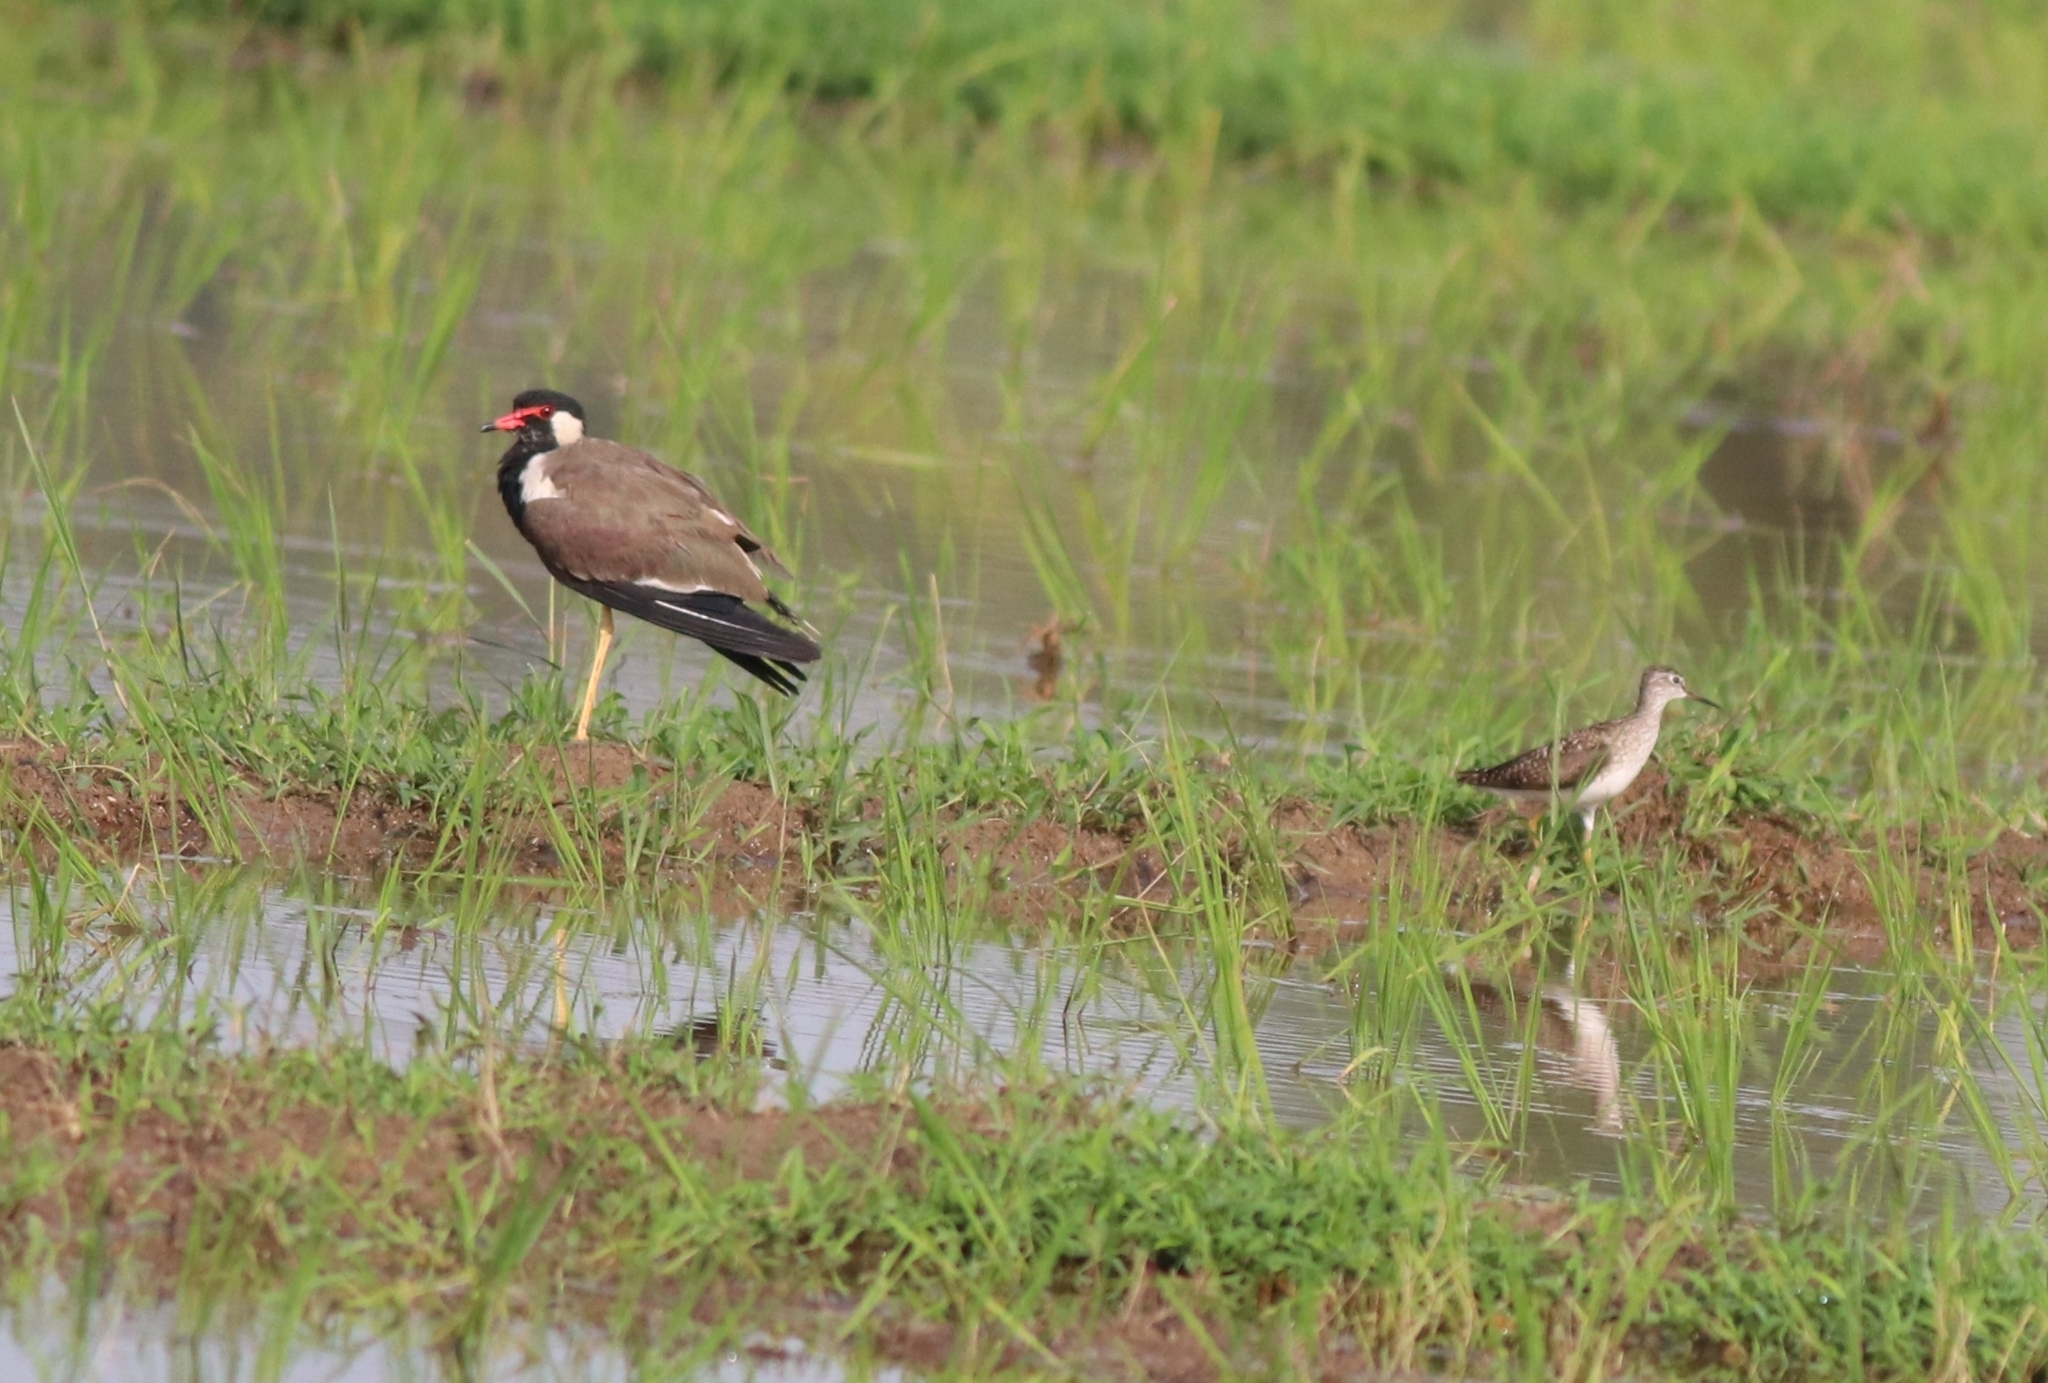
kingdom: Animalia
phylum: Chordata
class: Aves
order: Charadriiformes
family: Charadriidae
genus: Vanellus
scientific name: Vanellus indicus
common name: Red-wattled lapwing
